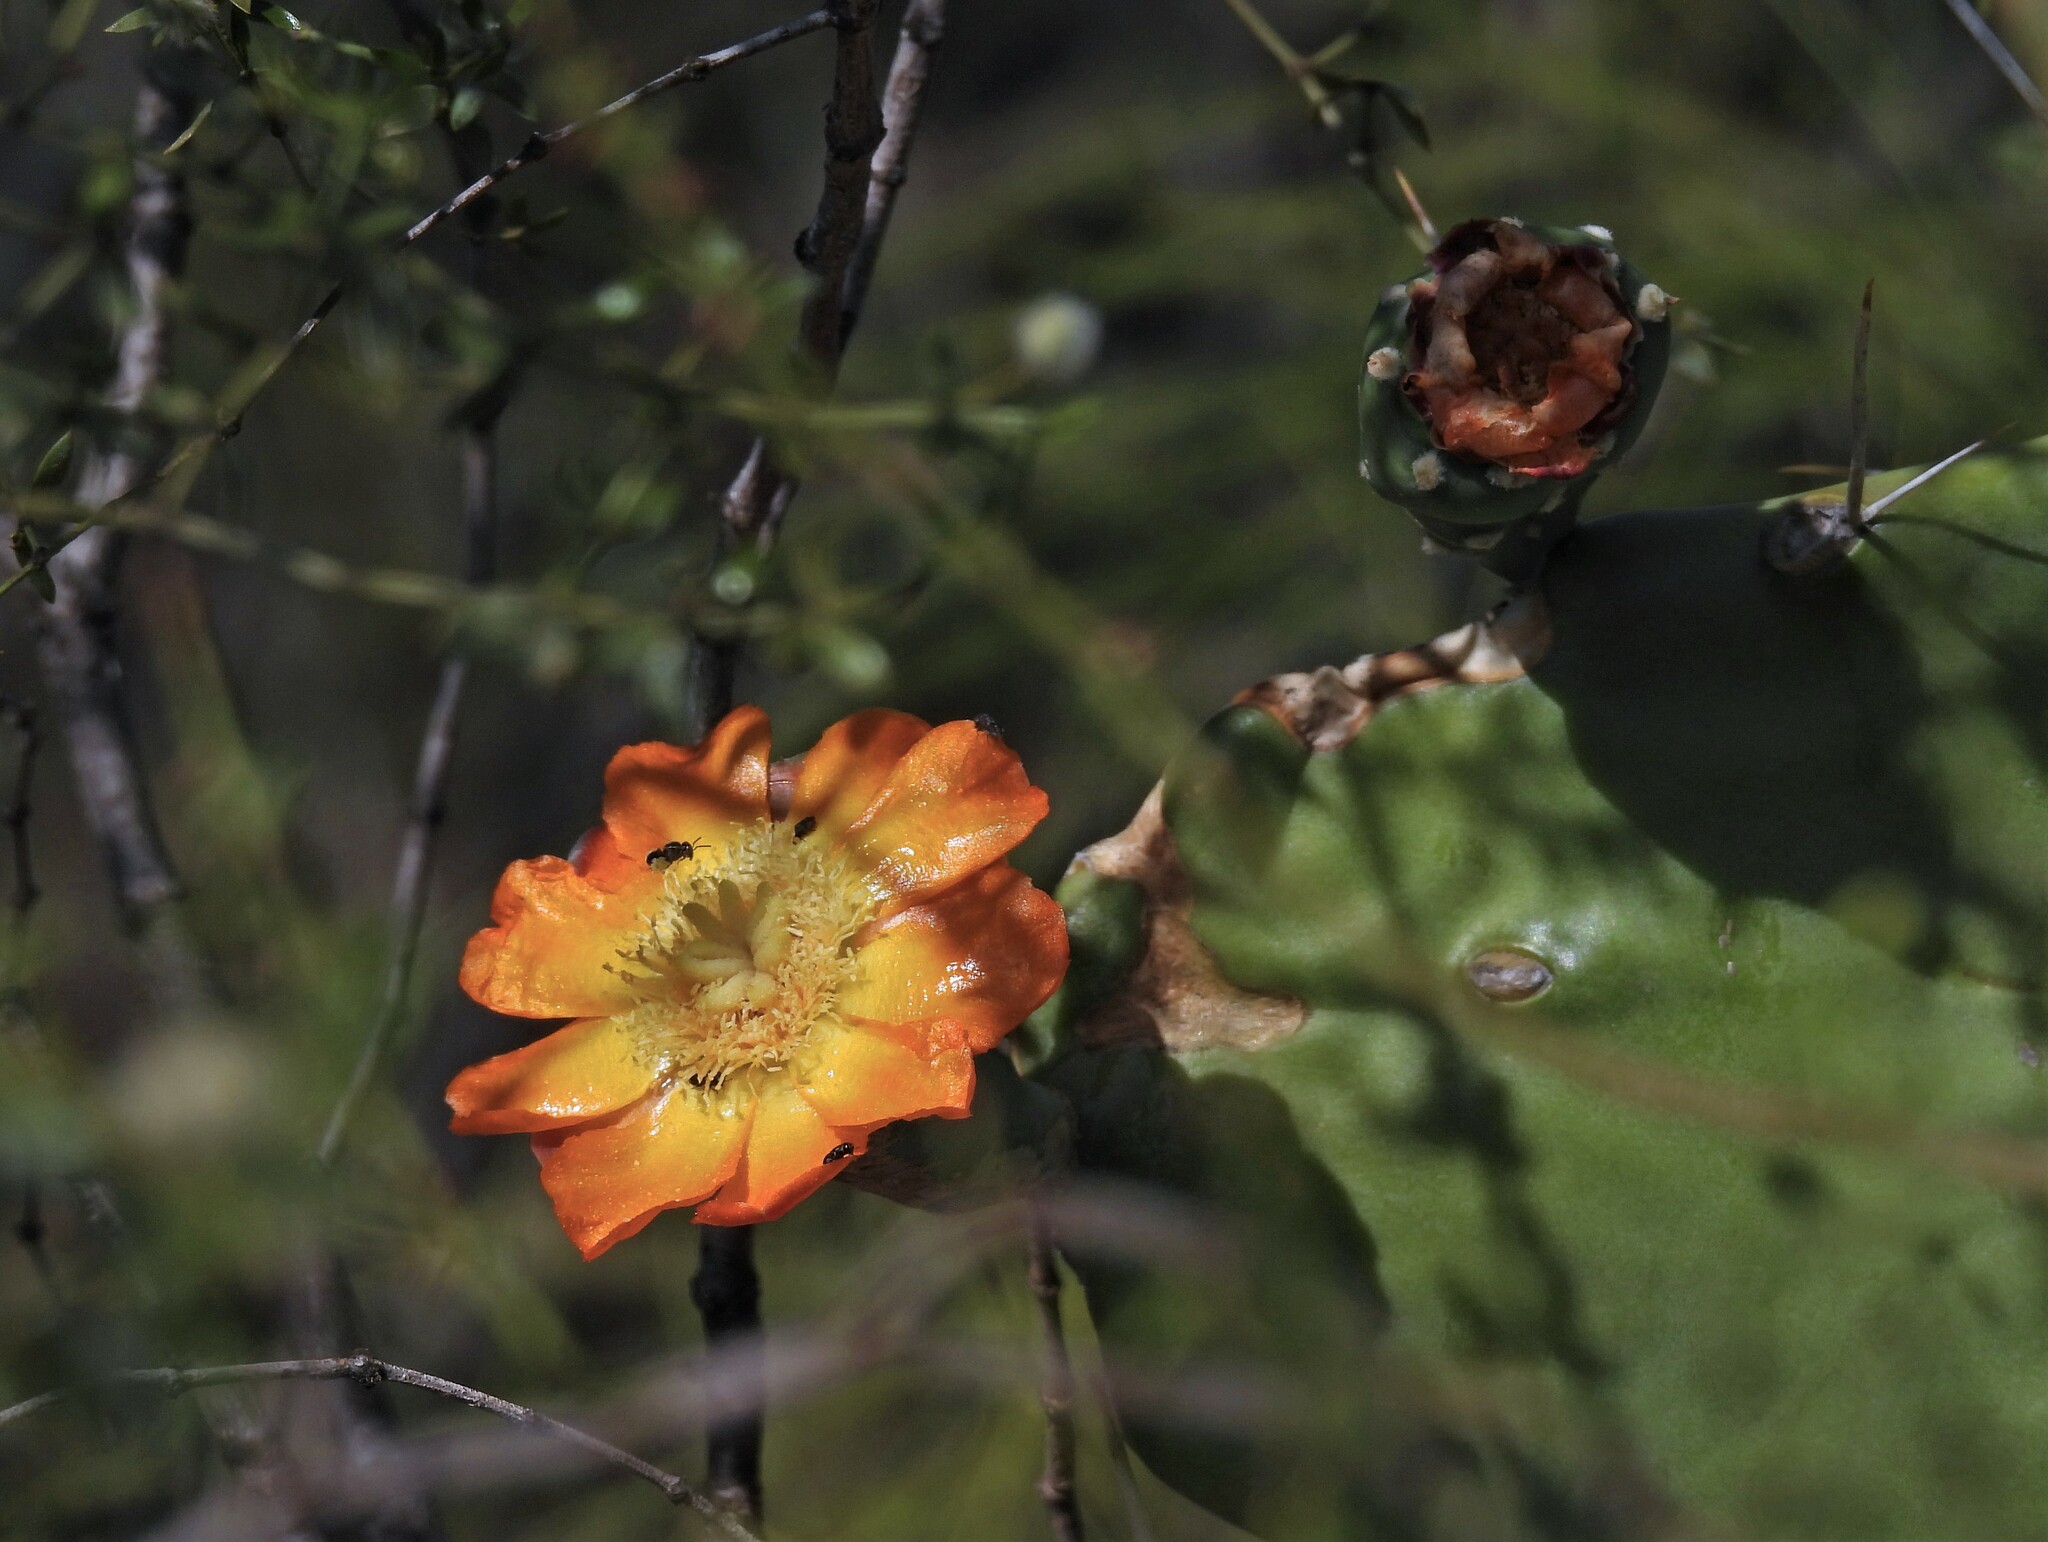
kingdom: Plantae
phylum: Tracheophyta
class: Magnoliopsida
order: Caryophyllales
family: Cactaceae
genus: Opuntia
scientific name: Opuntia quimilo
